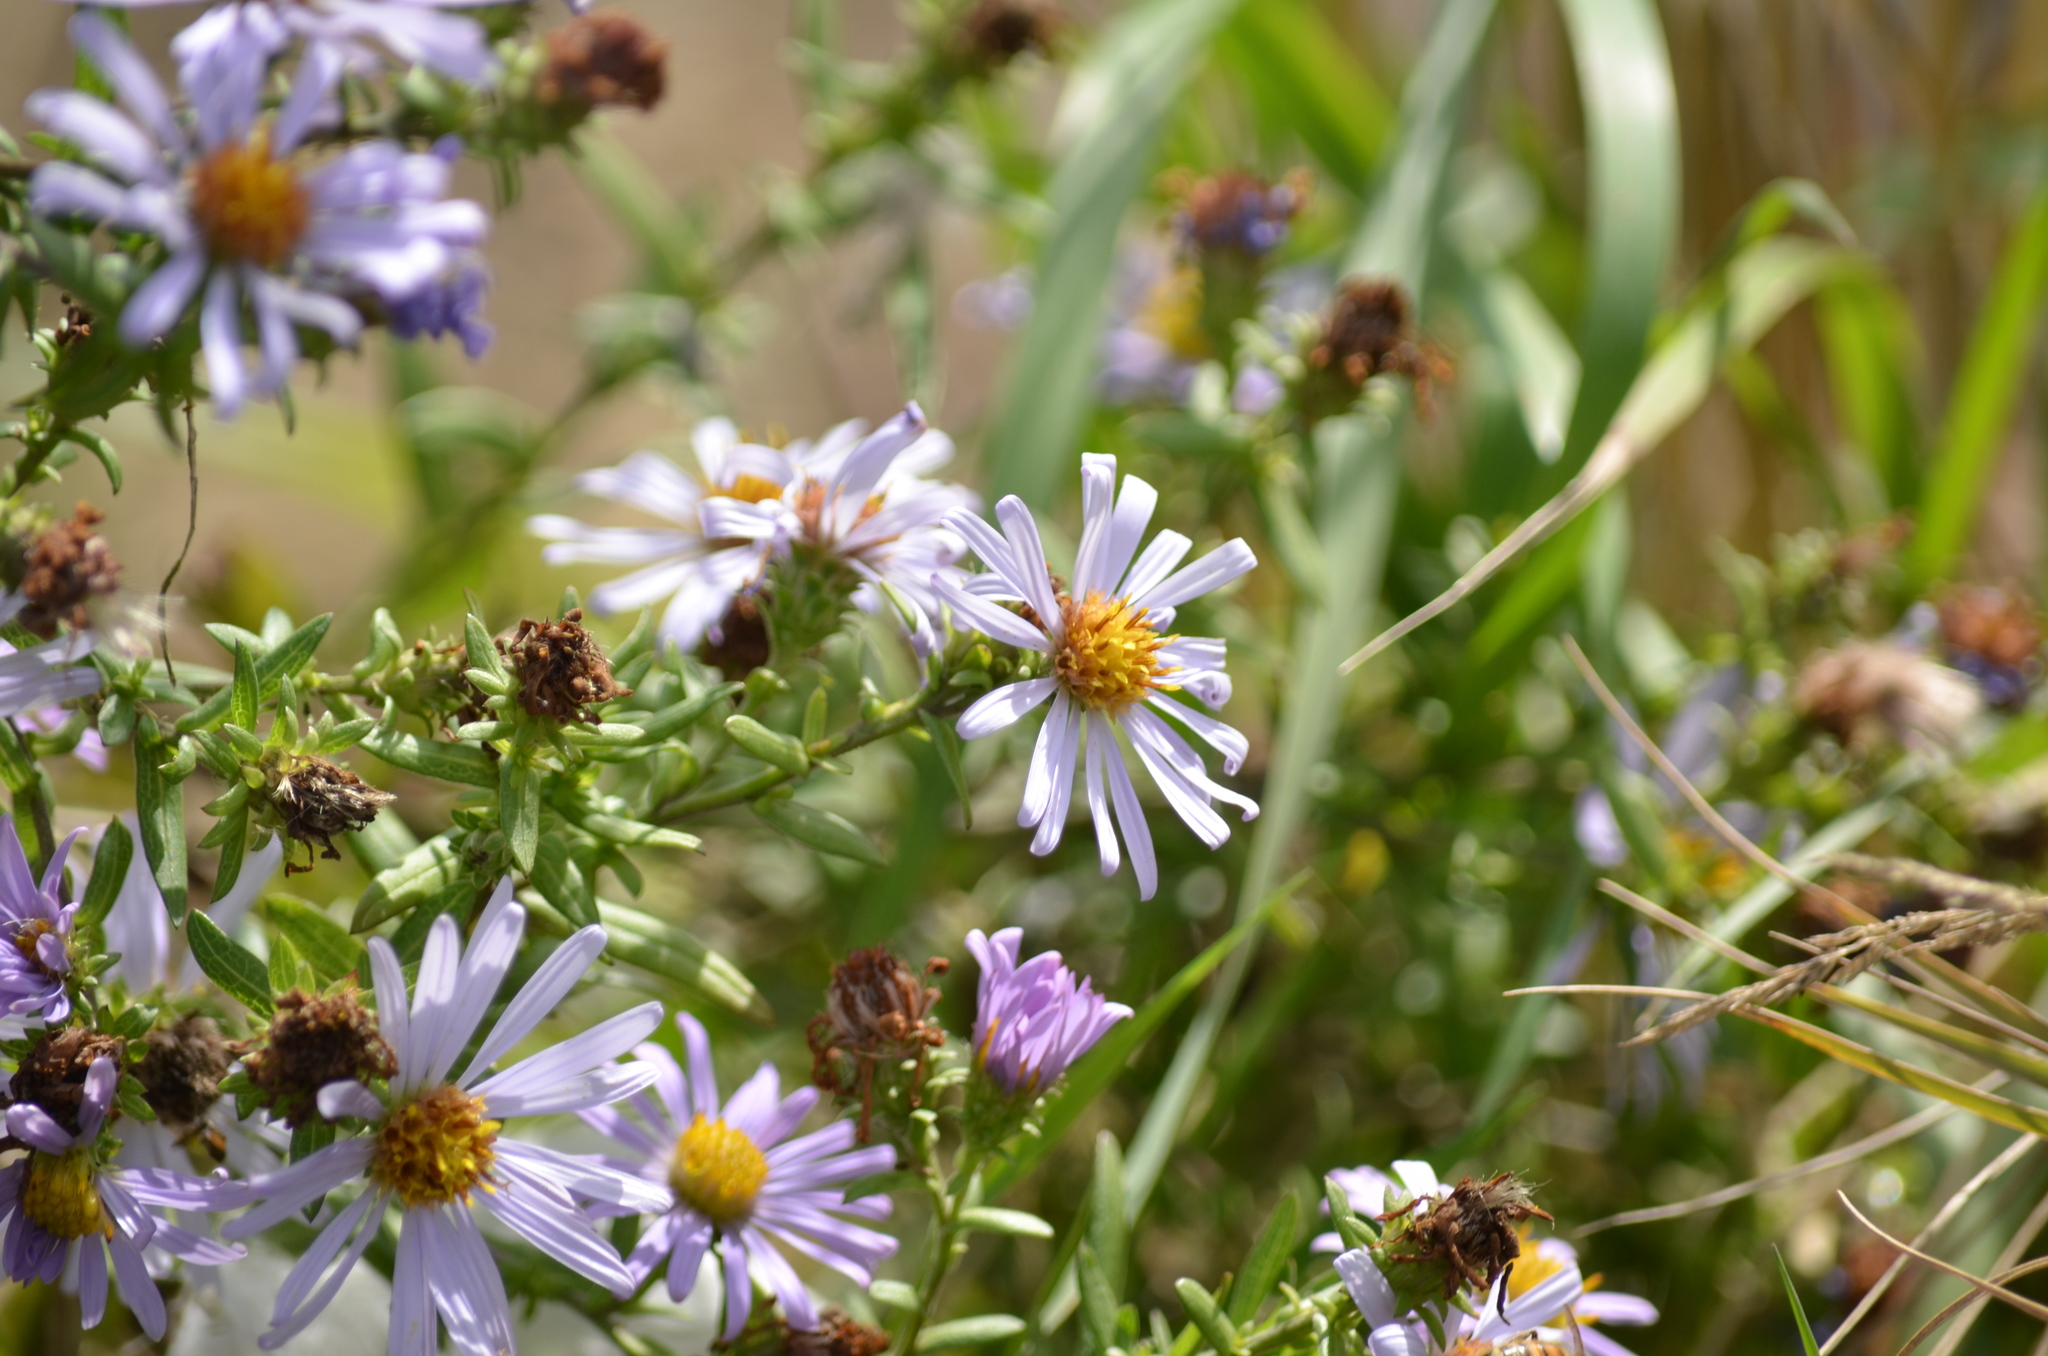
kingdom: Plantae
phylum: Tracheophyta
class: Magnoliopsida
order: Asterales
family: Asteraceae
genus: Symphyotrichum
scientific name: Symphyotrichum chilense
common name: Pacific aster
